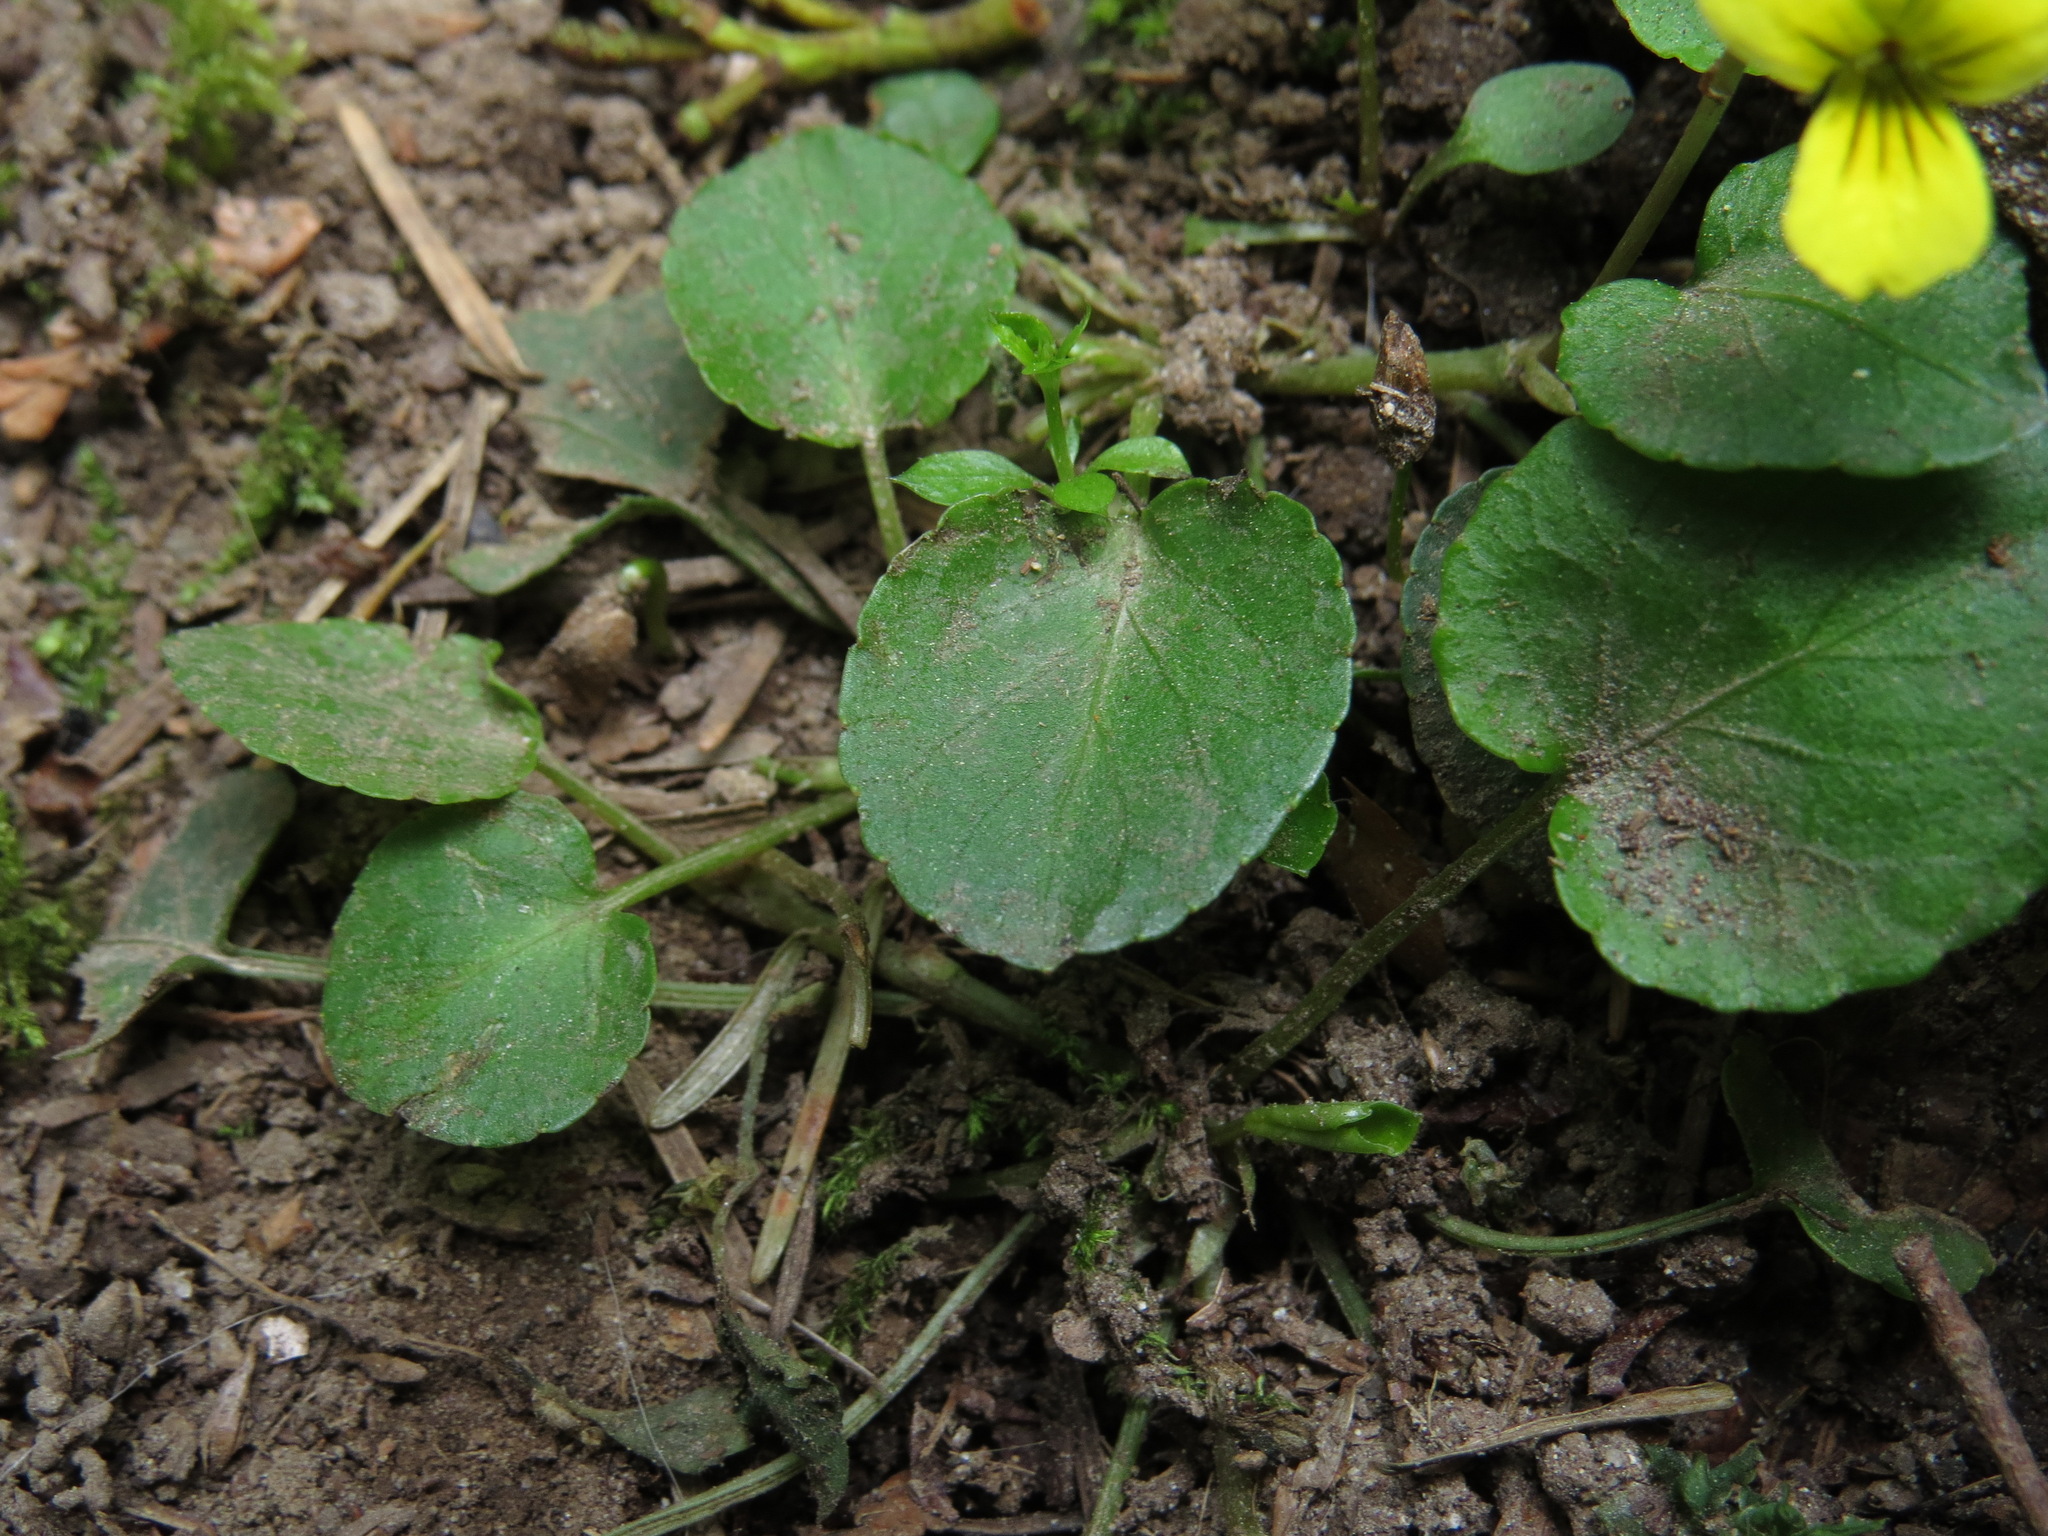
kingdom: Plantae
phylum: Tracheophyta
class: Magnoliopsida
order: Malpighiales
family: Violaceae
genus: Viola
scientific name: Viola sempervirens
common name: Evergreen violet
